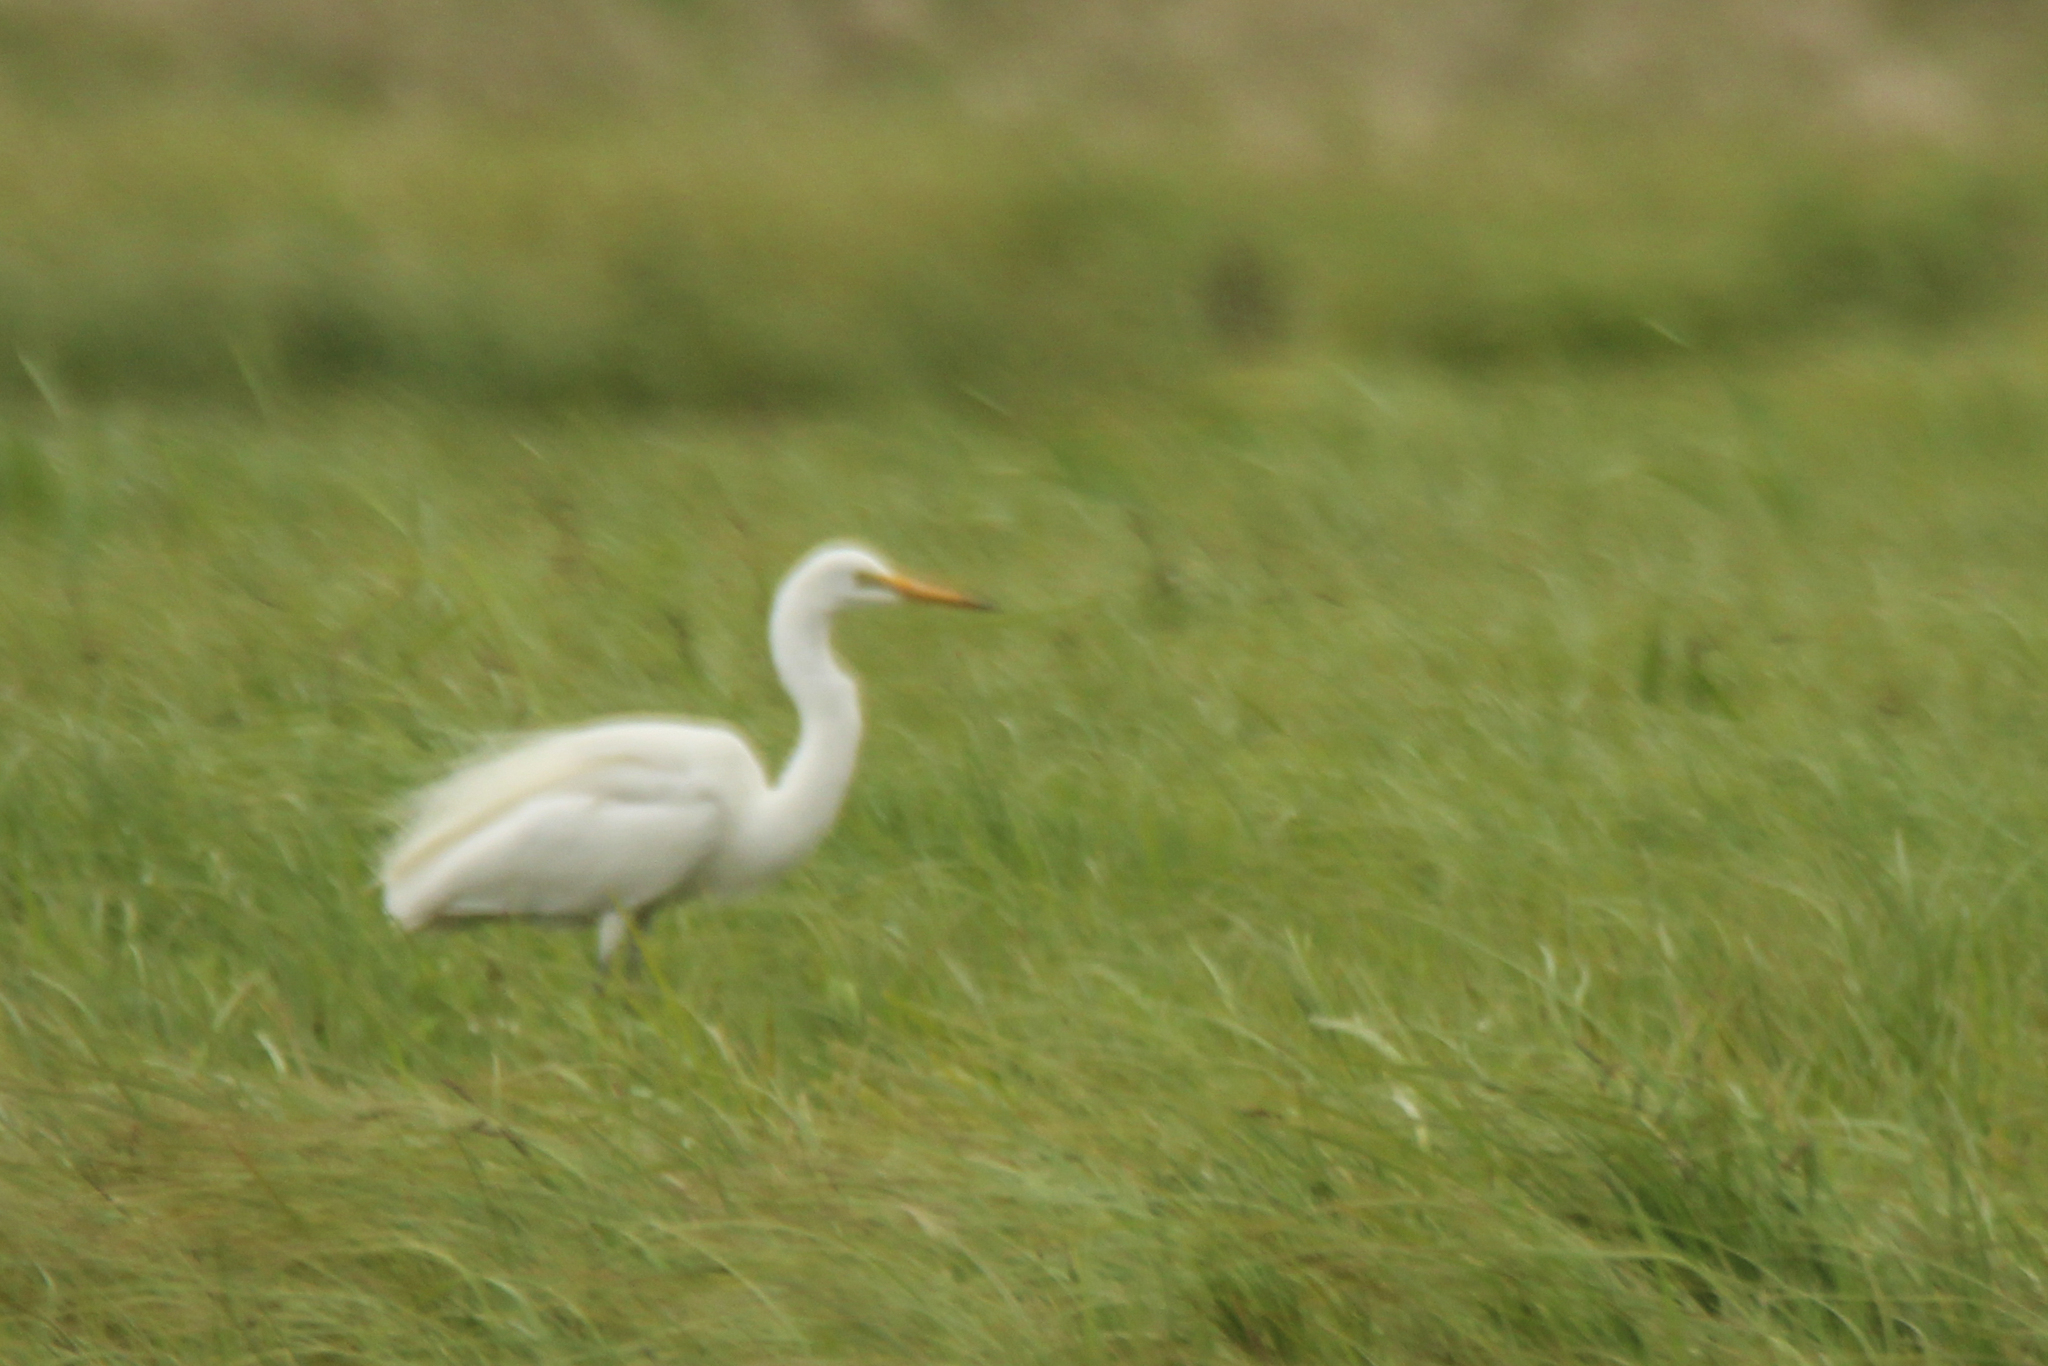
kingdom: Animalia
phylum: Chordata
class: Aves
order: Pelecaniformes
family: Ardeidae
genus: Ardea
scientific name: Ardea alba
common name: Great egret
